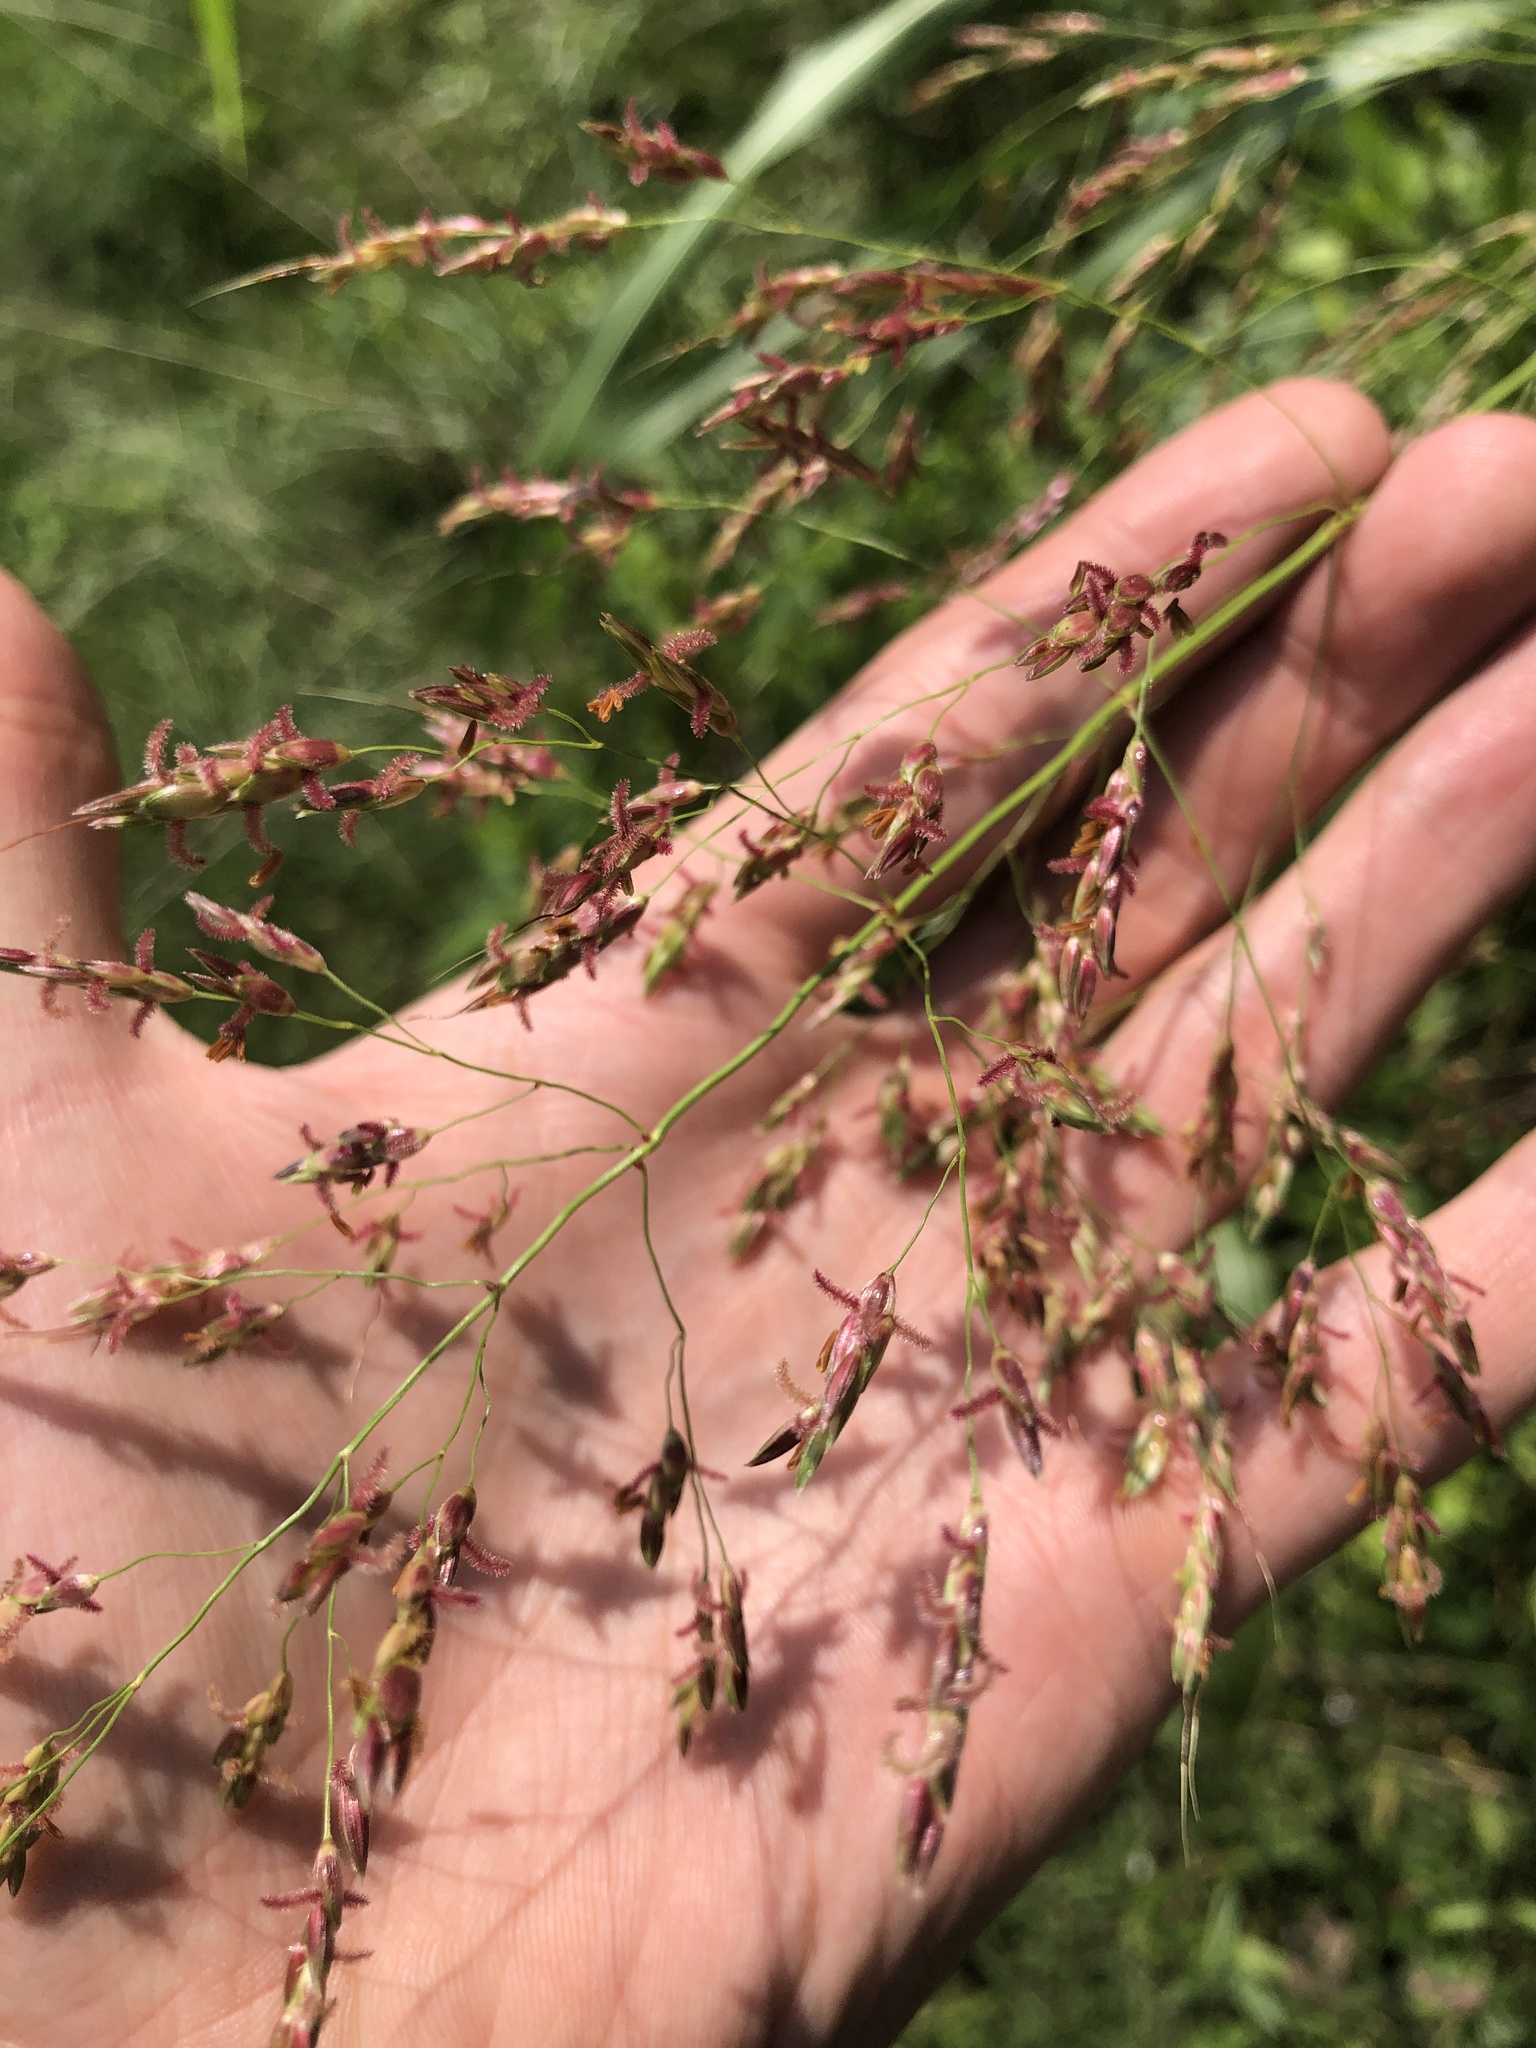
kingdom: Plantae
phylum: Tracheophyta
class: Liliopsida
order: Poales
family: Poaceae
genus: Sorghum
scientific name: Sorghum halepense
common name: Johnson-grass
